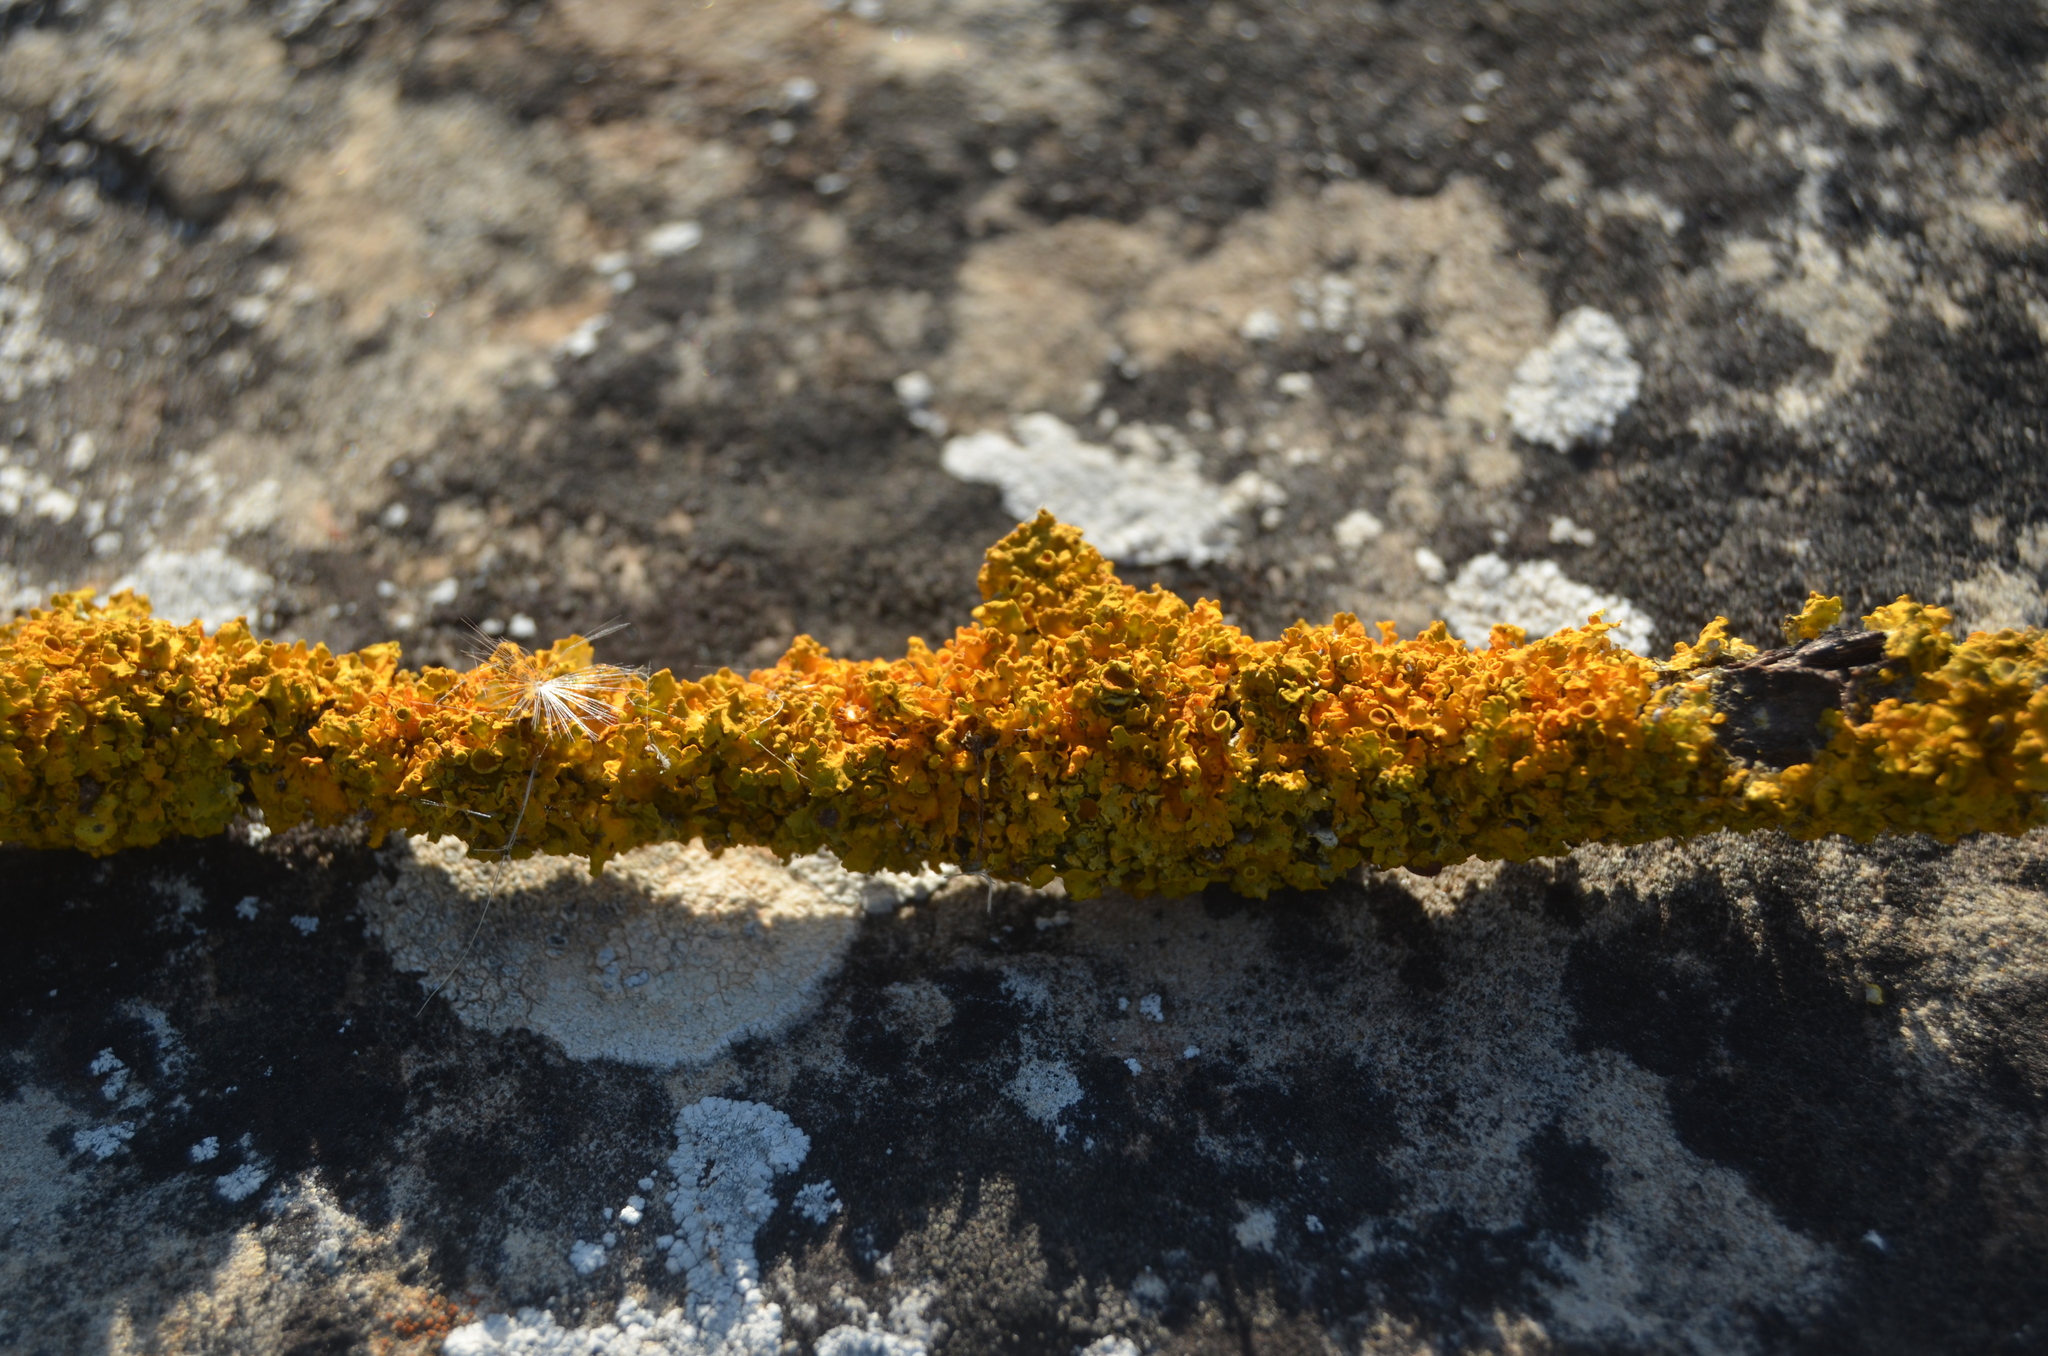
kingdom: Fungi
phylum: Ascomycota
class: Lecanoromycetes
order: Teloschistales
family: Teloschistaceae
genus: Xanthoria
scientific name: Xanthoria parietina
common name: Common orange lichen
